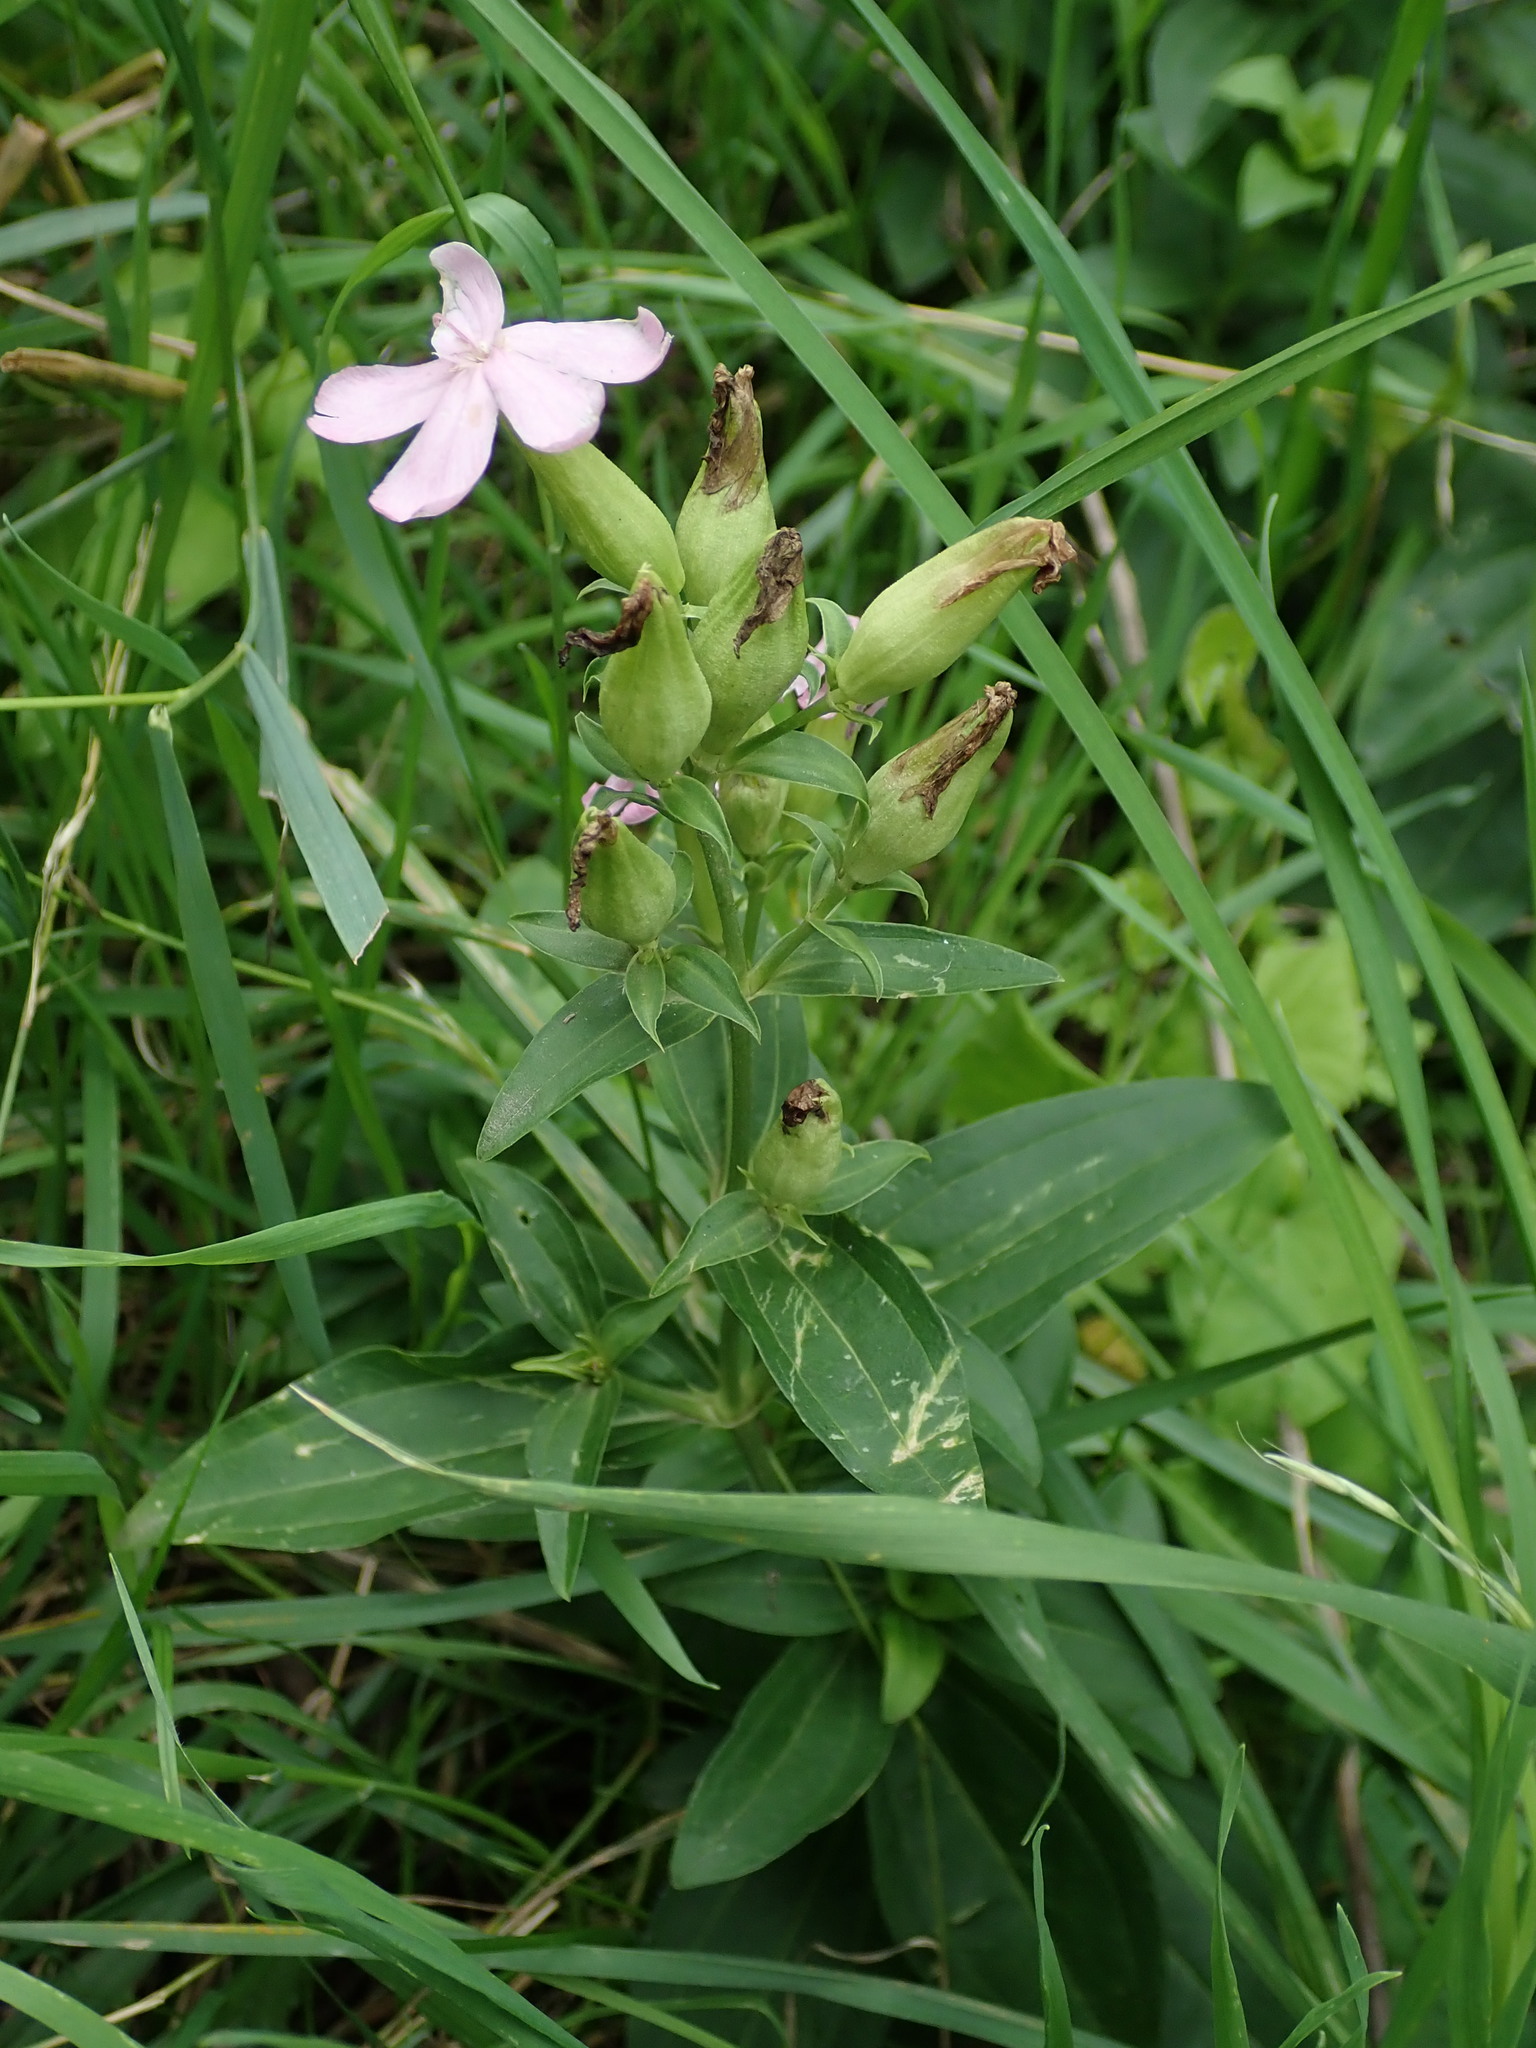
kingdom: Plantae
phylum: Tracheophyta
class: Magnoliopsida
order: Caryophyllales
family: Caryophyllaceae
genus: Saponaria
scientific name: Saponaria officinalis
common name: Soapwort
